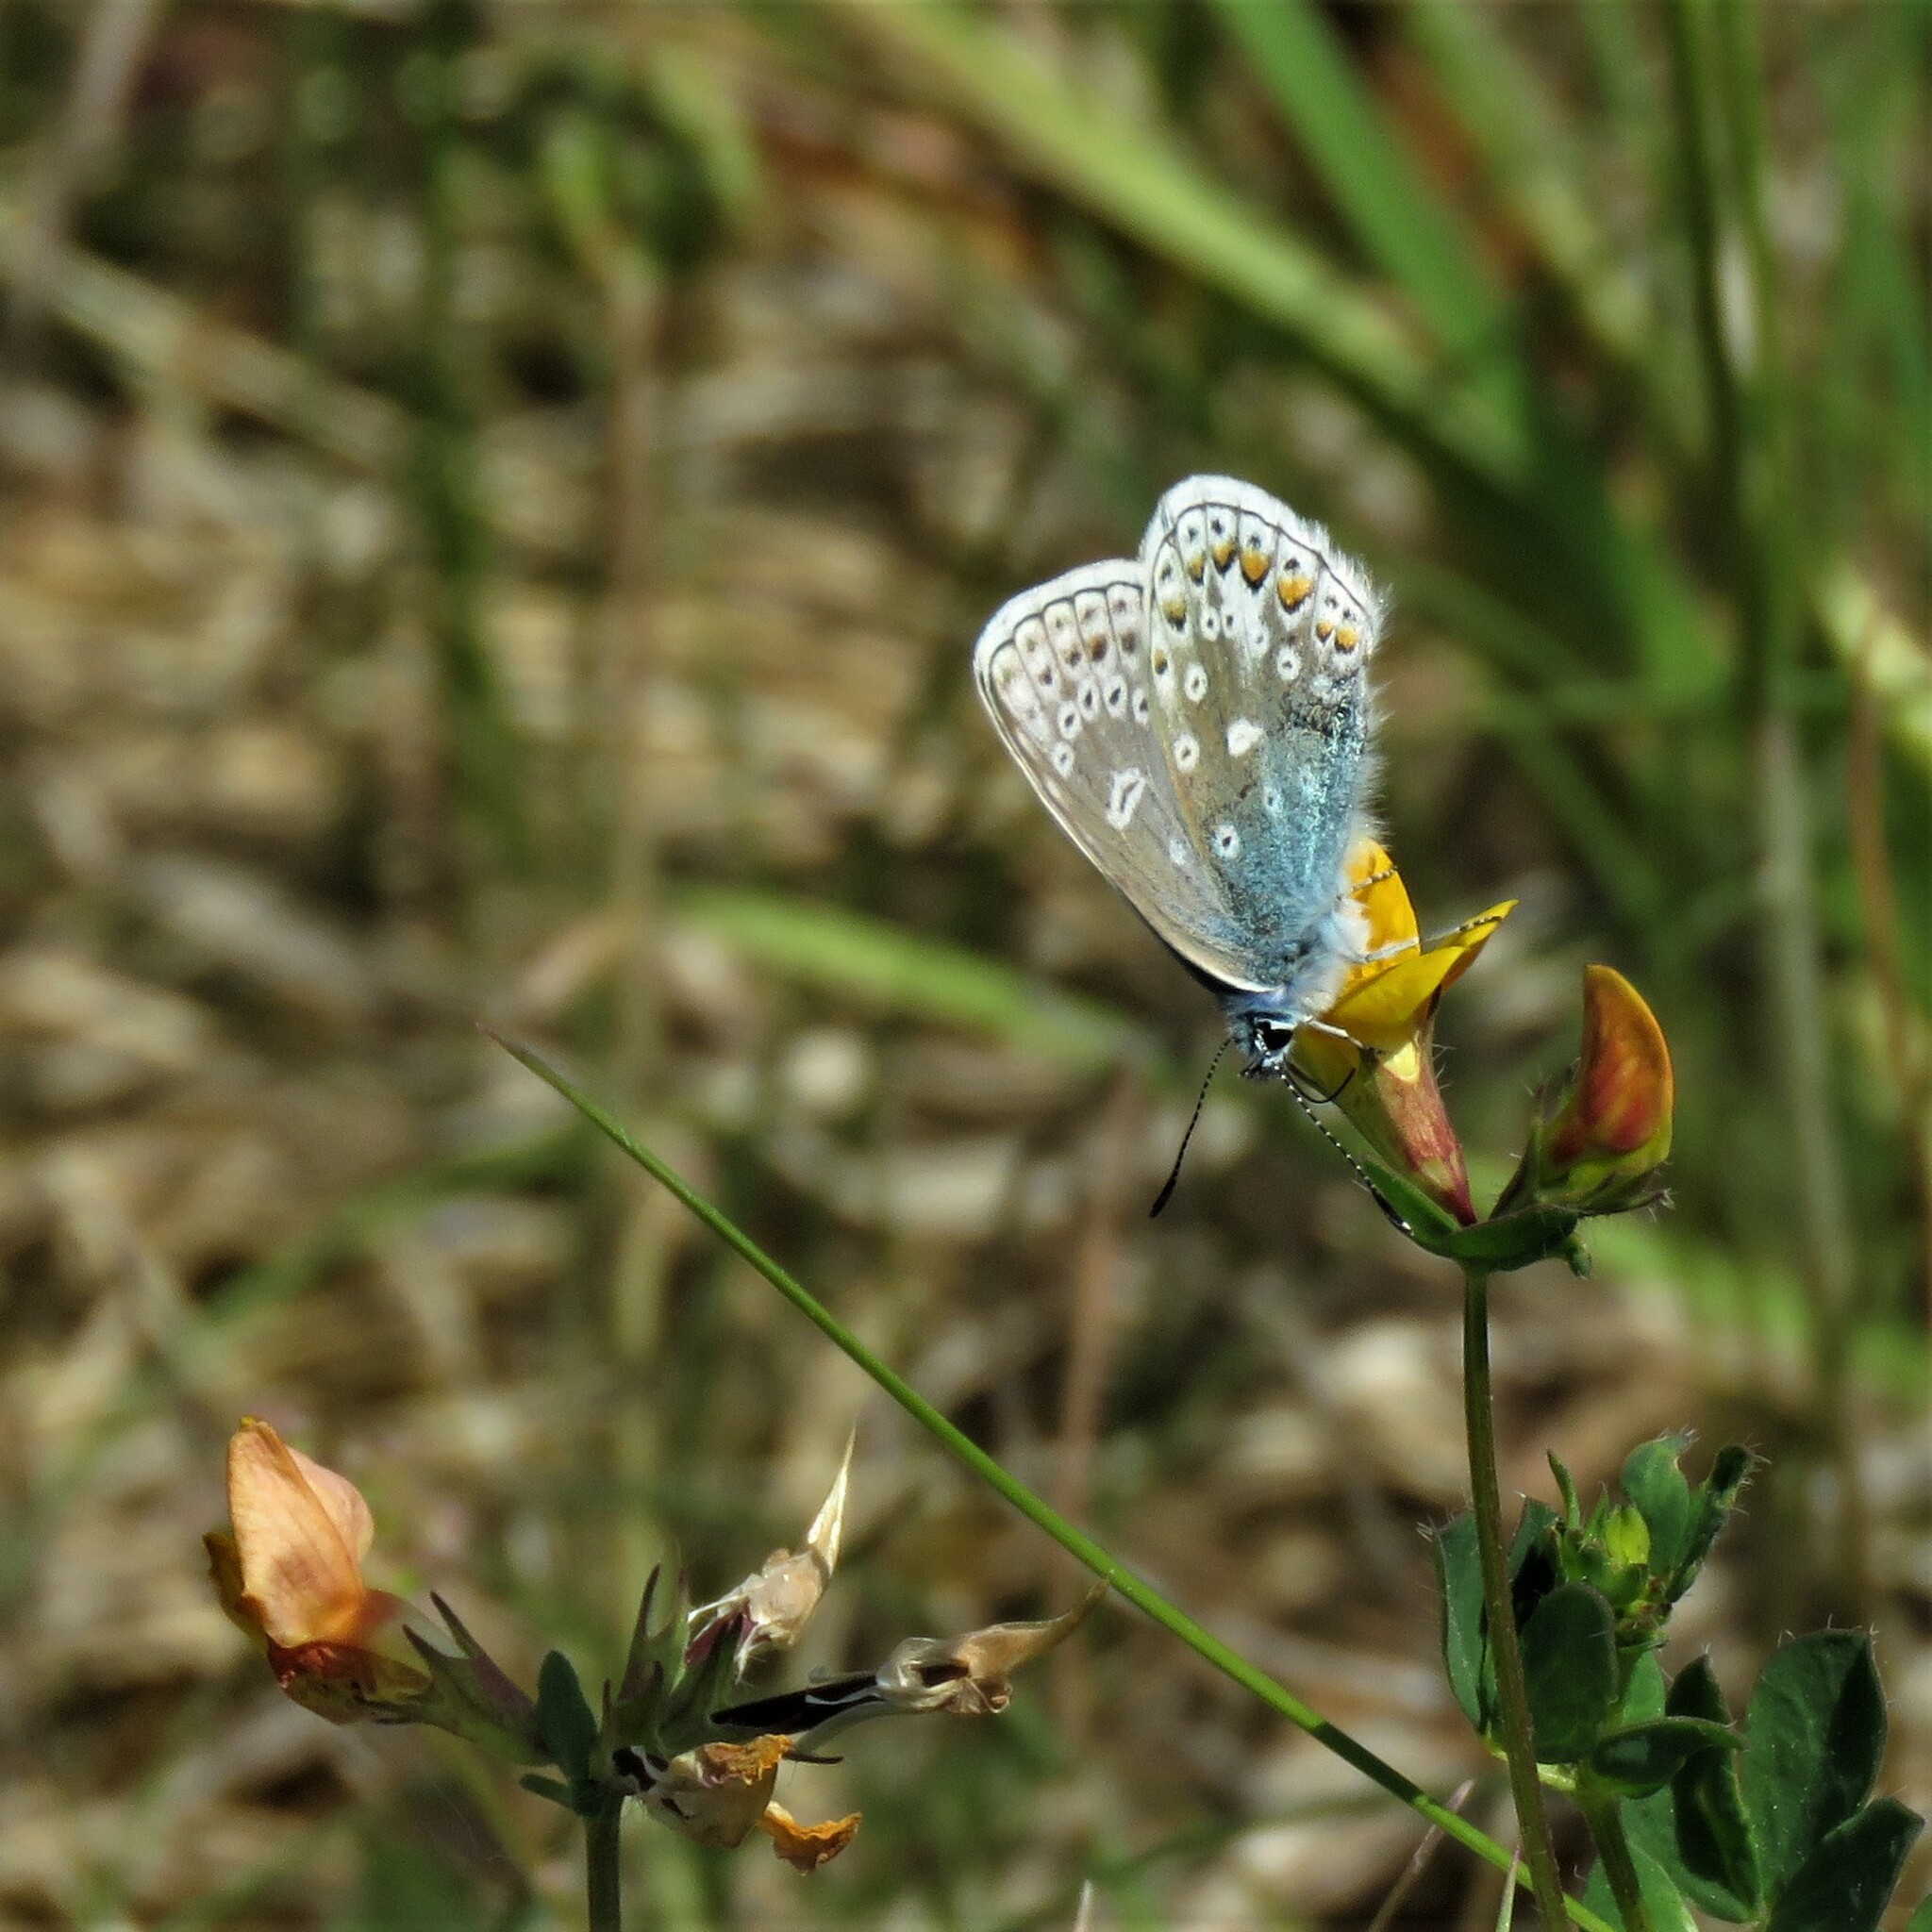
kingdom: Animalia
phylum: Arthropoda
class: Insecta
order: Lepidoptera
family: Lycaenidae
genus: Polyommatus
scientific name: Polyommatus icarus
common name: Common blue
